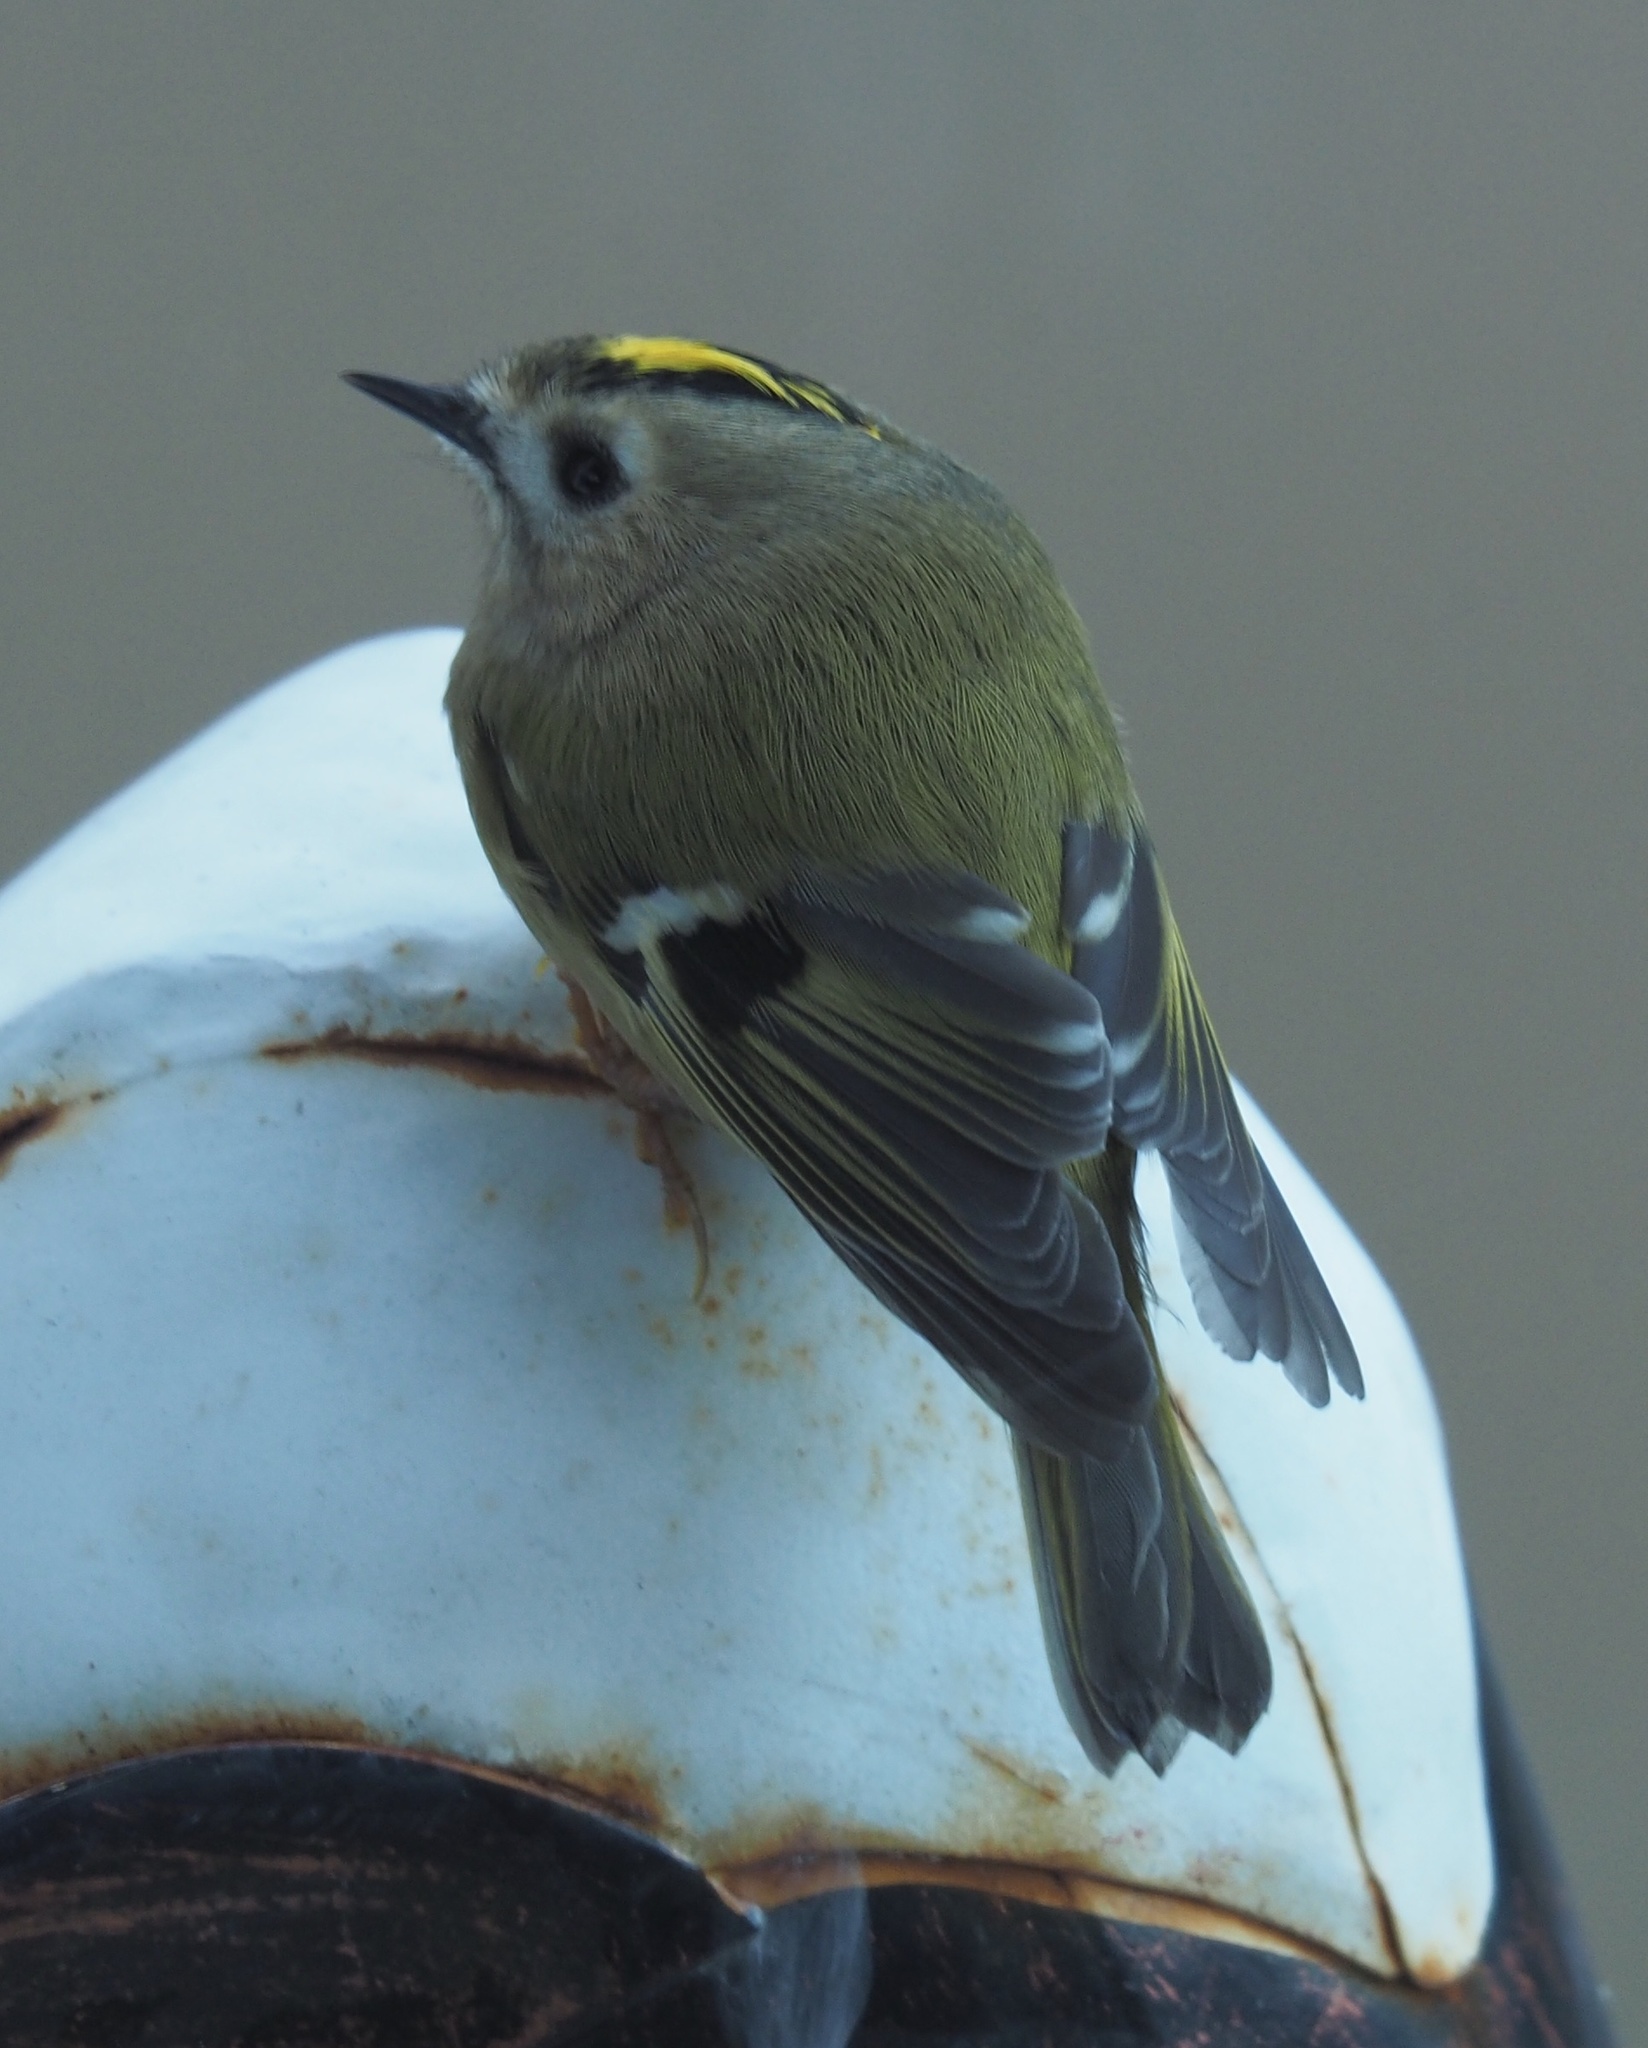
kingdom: Animalia
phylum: Chordata
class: Aves
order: Passeriformes
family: Regulidae
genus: Regulus
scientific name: Regulus regulus
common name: Goldcrest
